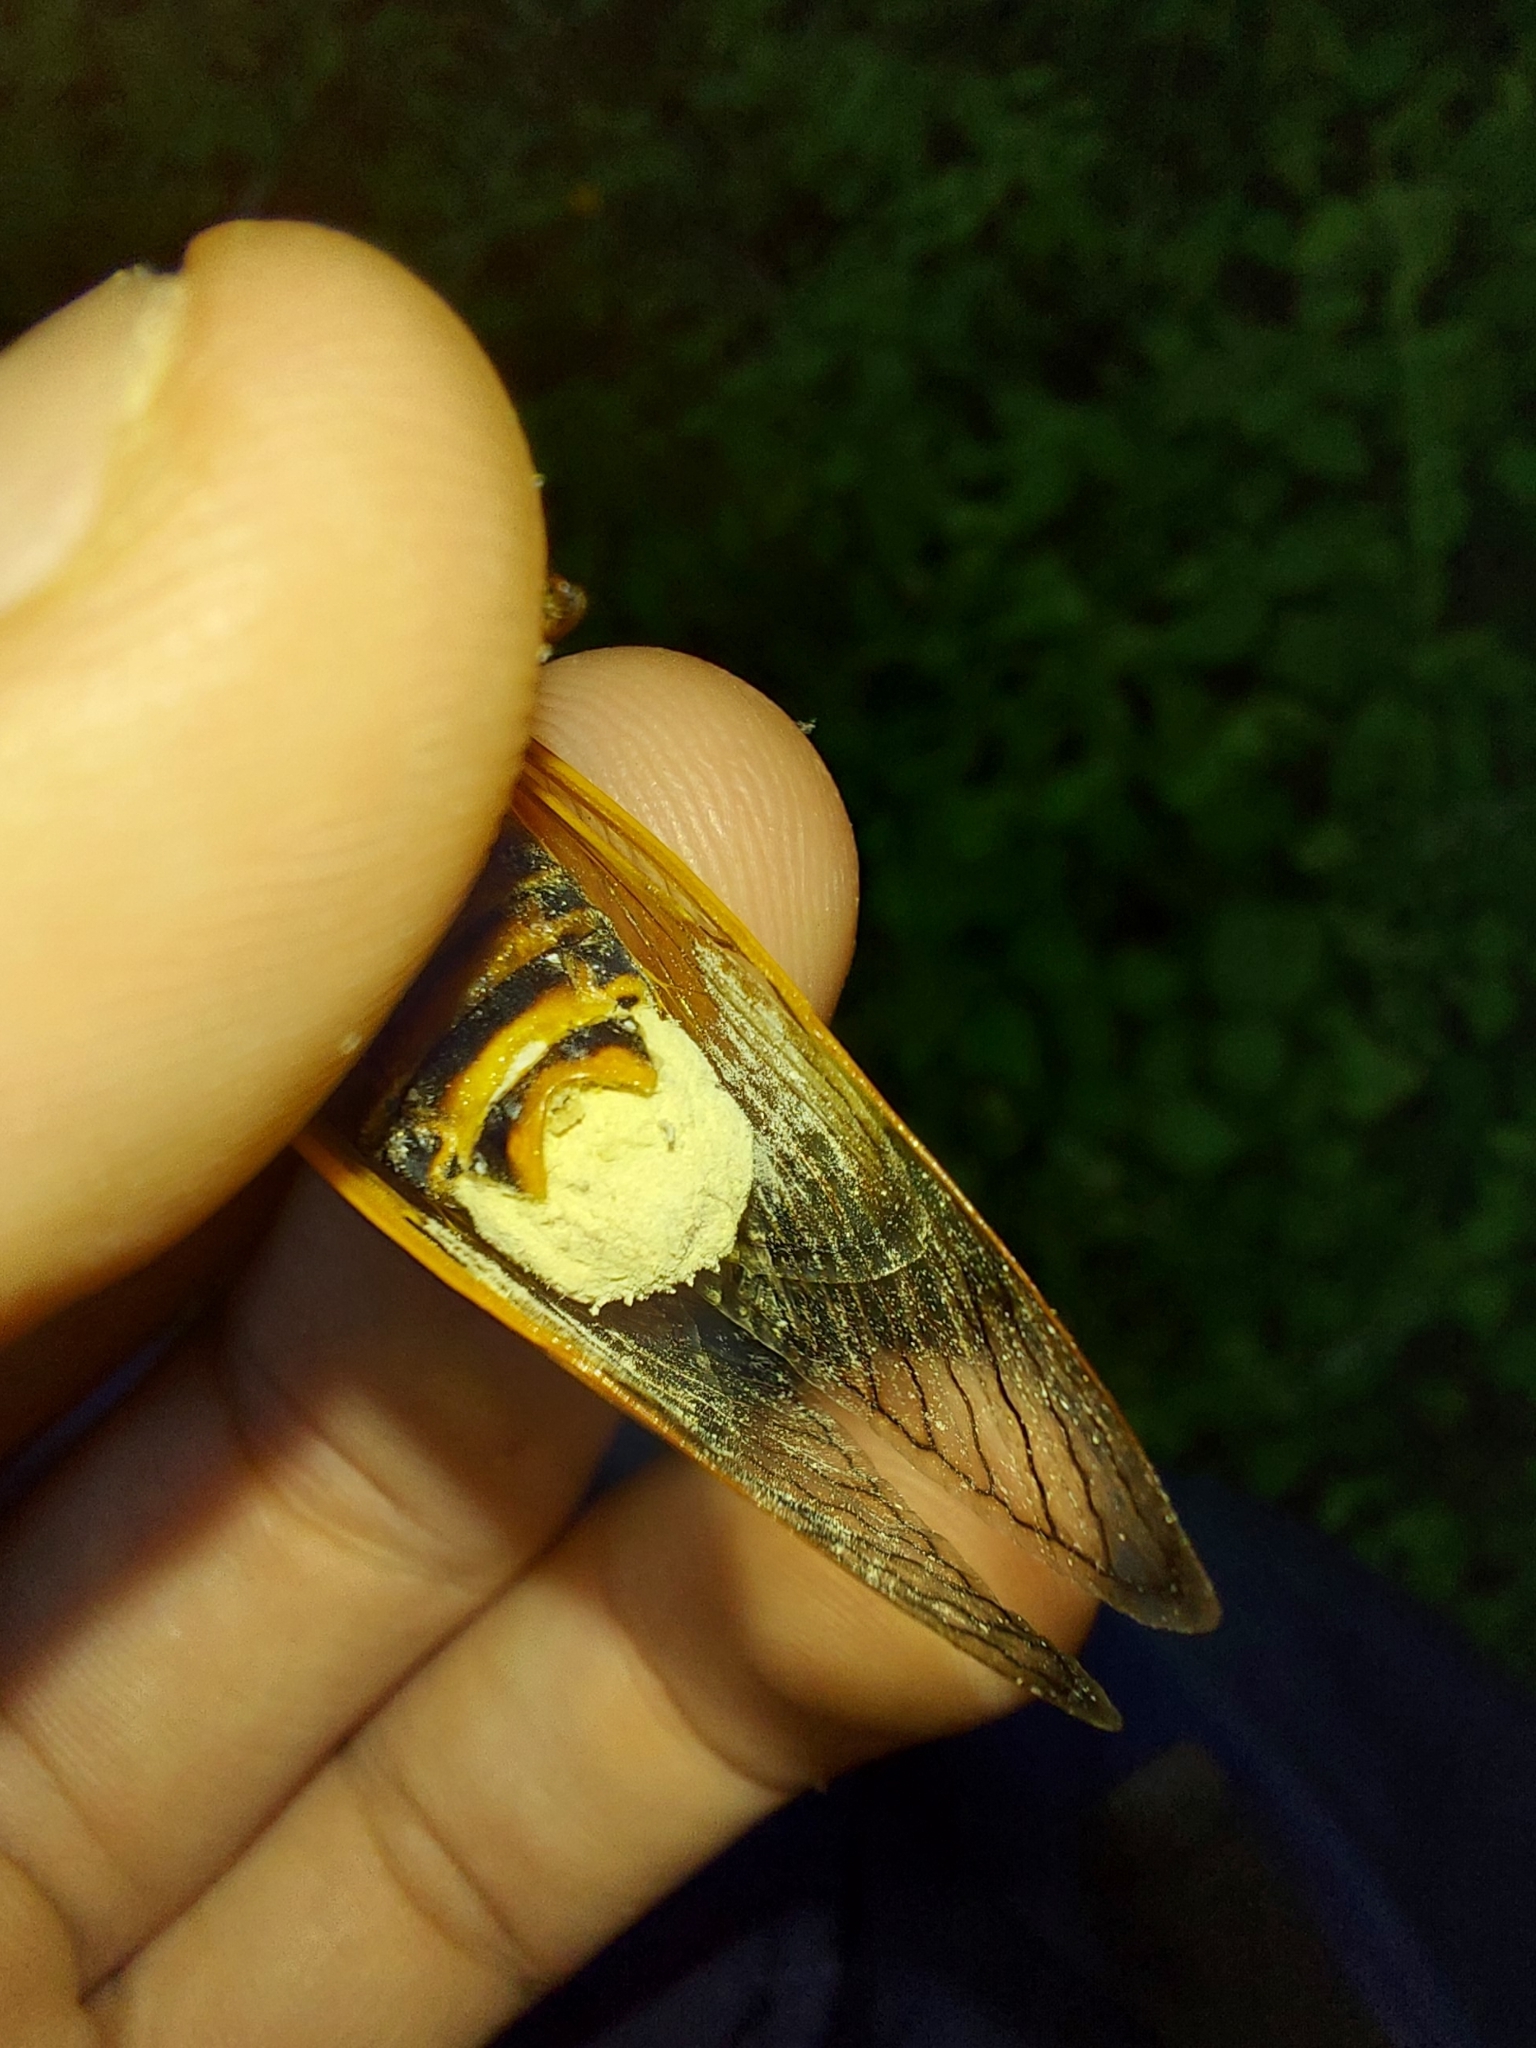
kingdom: Fungi
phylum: Entomophthoromycota
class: Entomophthoromycetes
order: Entomophthorales
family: Entomophthoraceae
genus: Massospora
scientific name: Massospora cicadina
